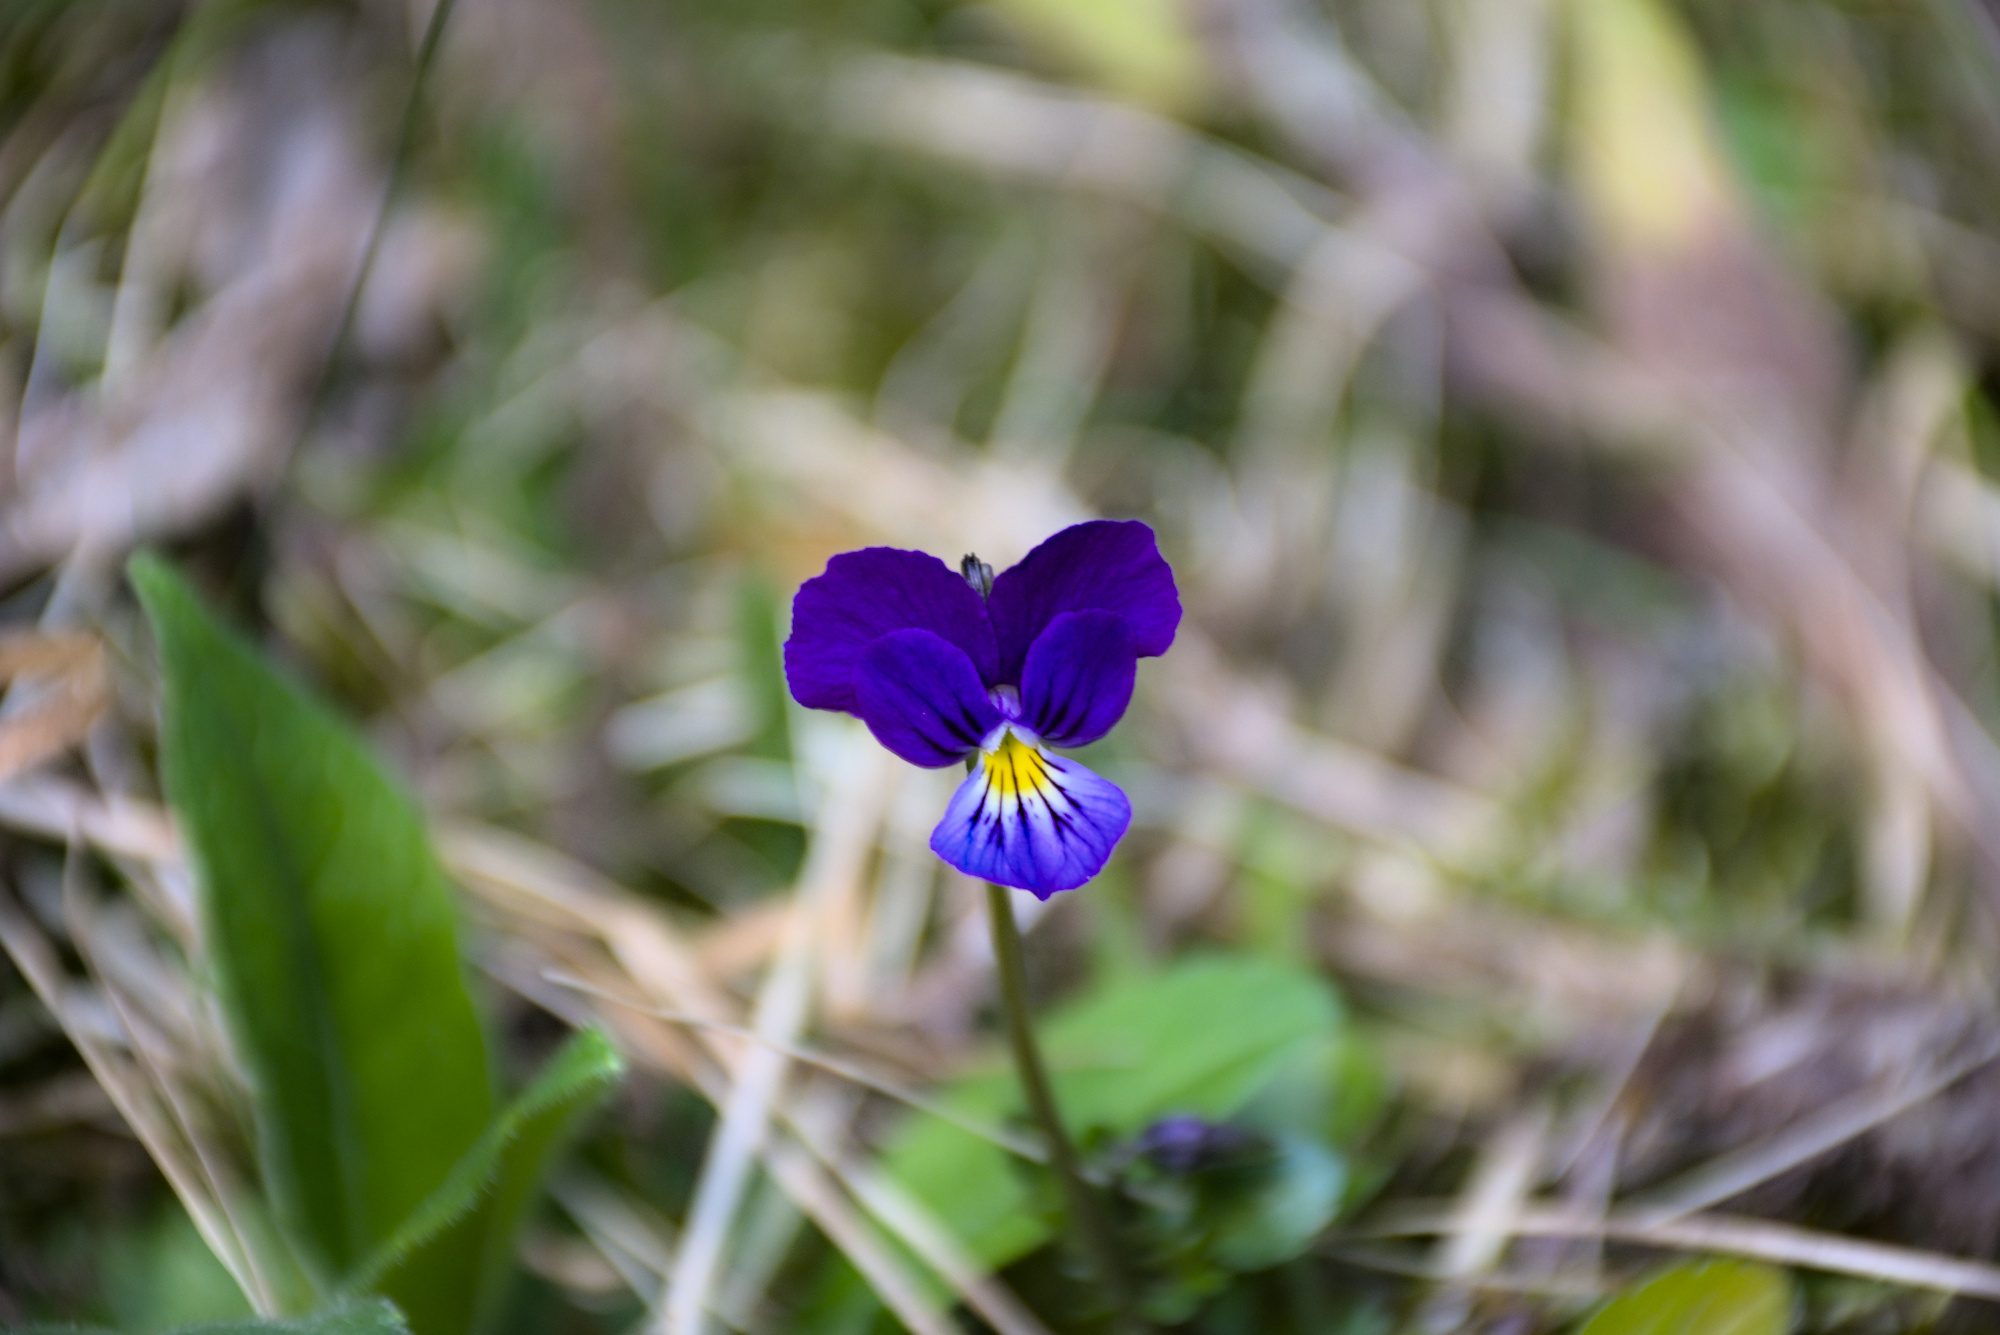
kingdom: Plantae
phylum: Tracheophyta
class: Magnoliopsida
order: Malpighiales
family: Violaceae
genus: Viola
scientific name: Viola lutea
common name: Mountain pansy
